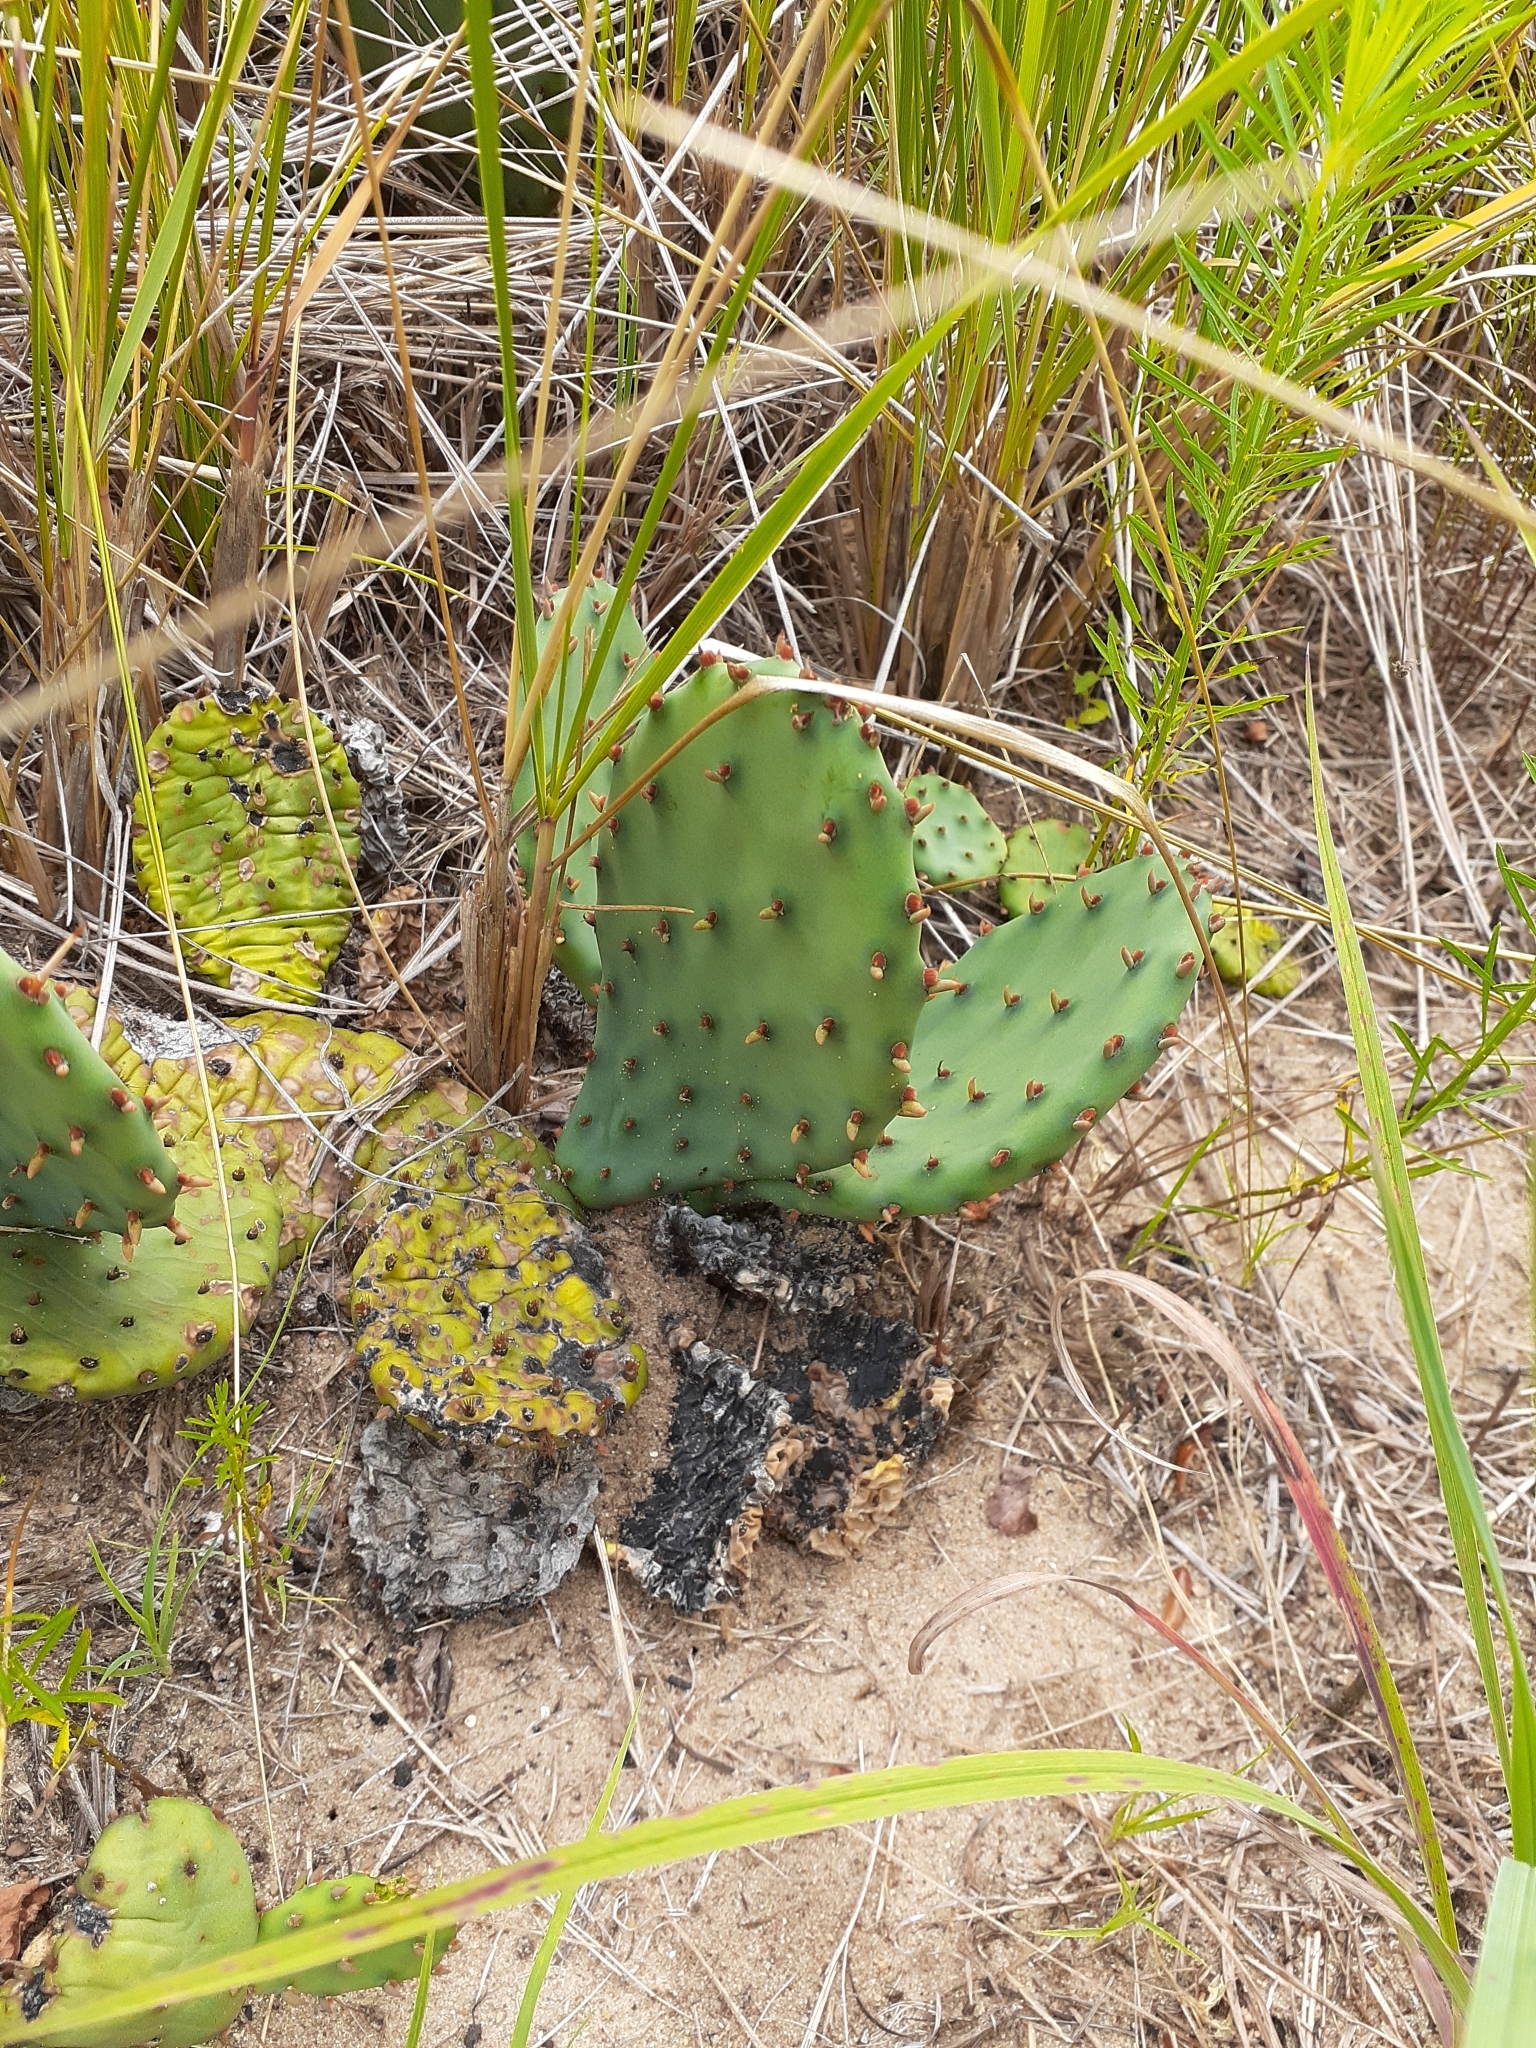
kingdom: Plantae
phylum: Tracheophyta
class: Magnoliopsida
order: Caryophyllales
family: Cactaceae
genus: Opuntia
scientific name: Opuntia humifusa
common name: Eastern prickly-pear
